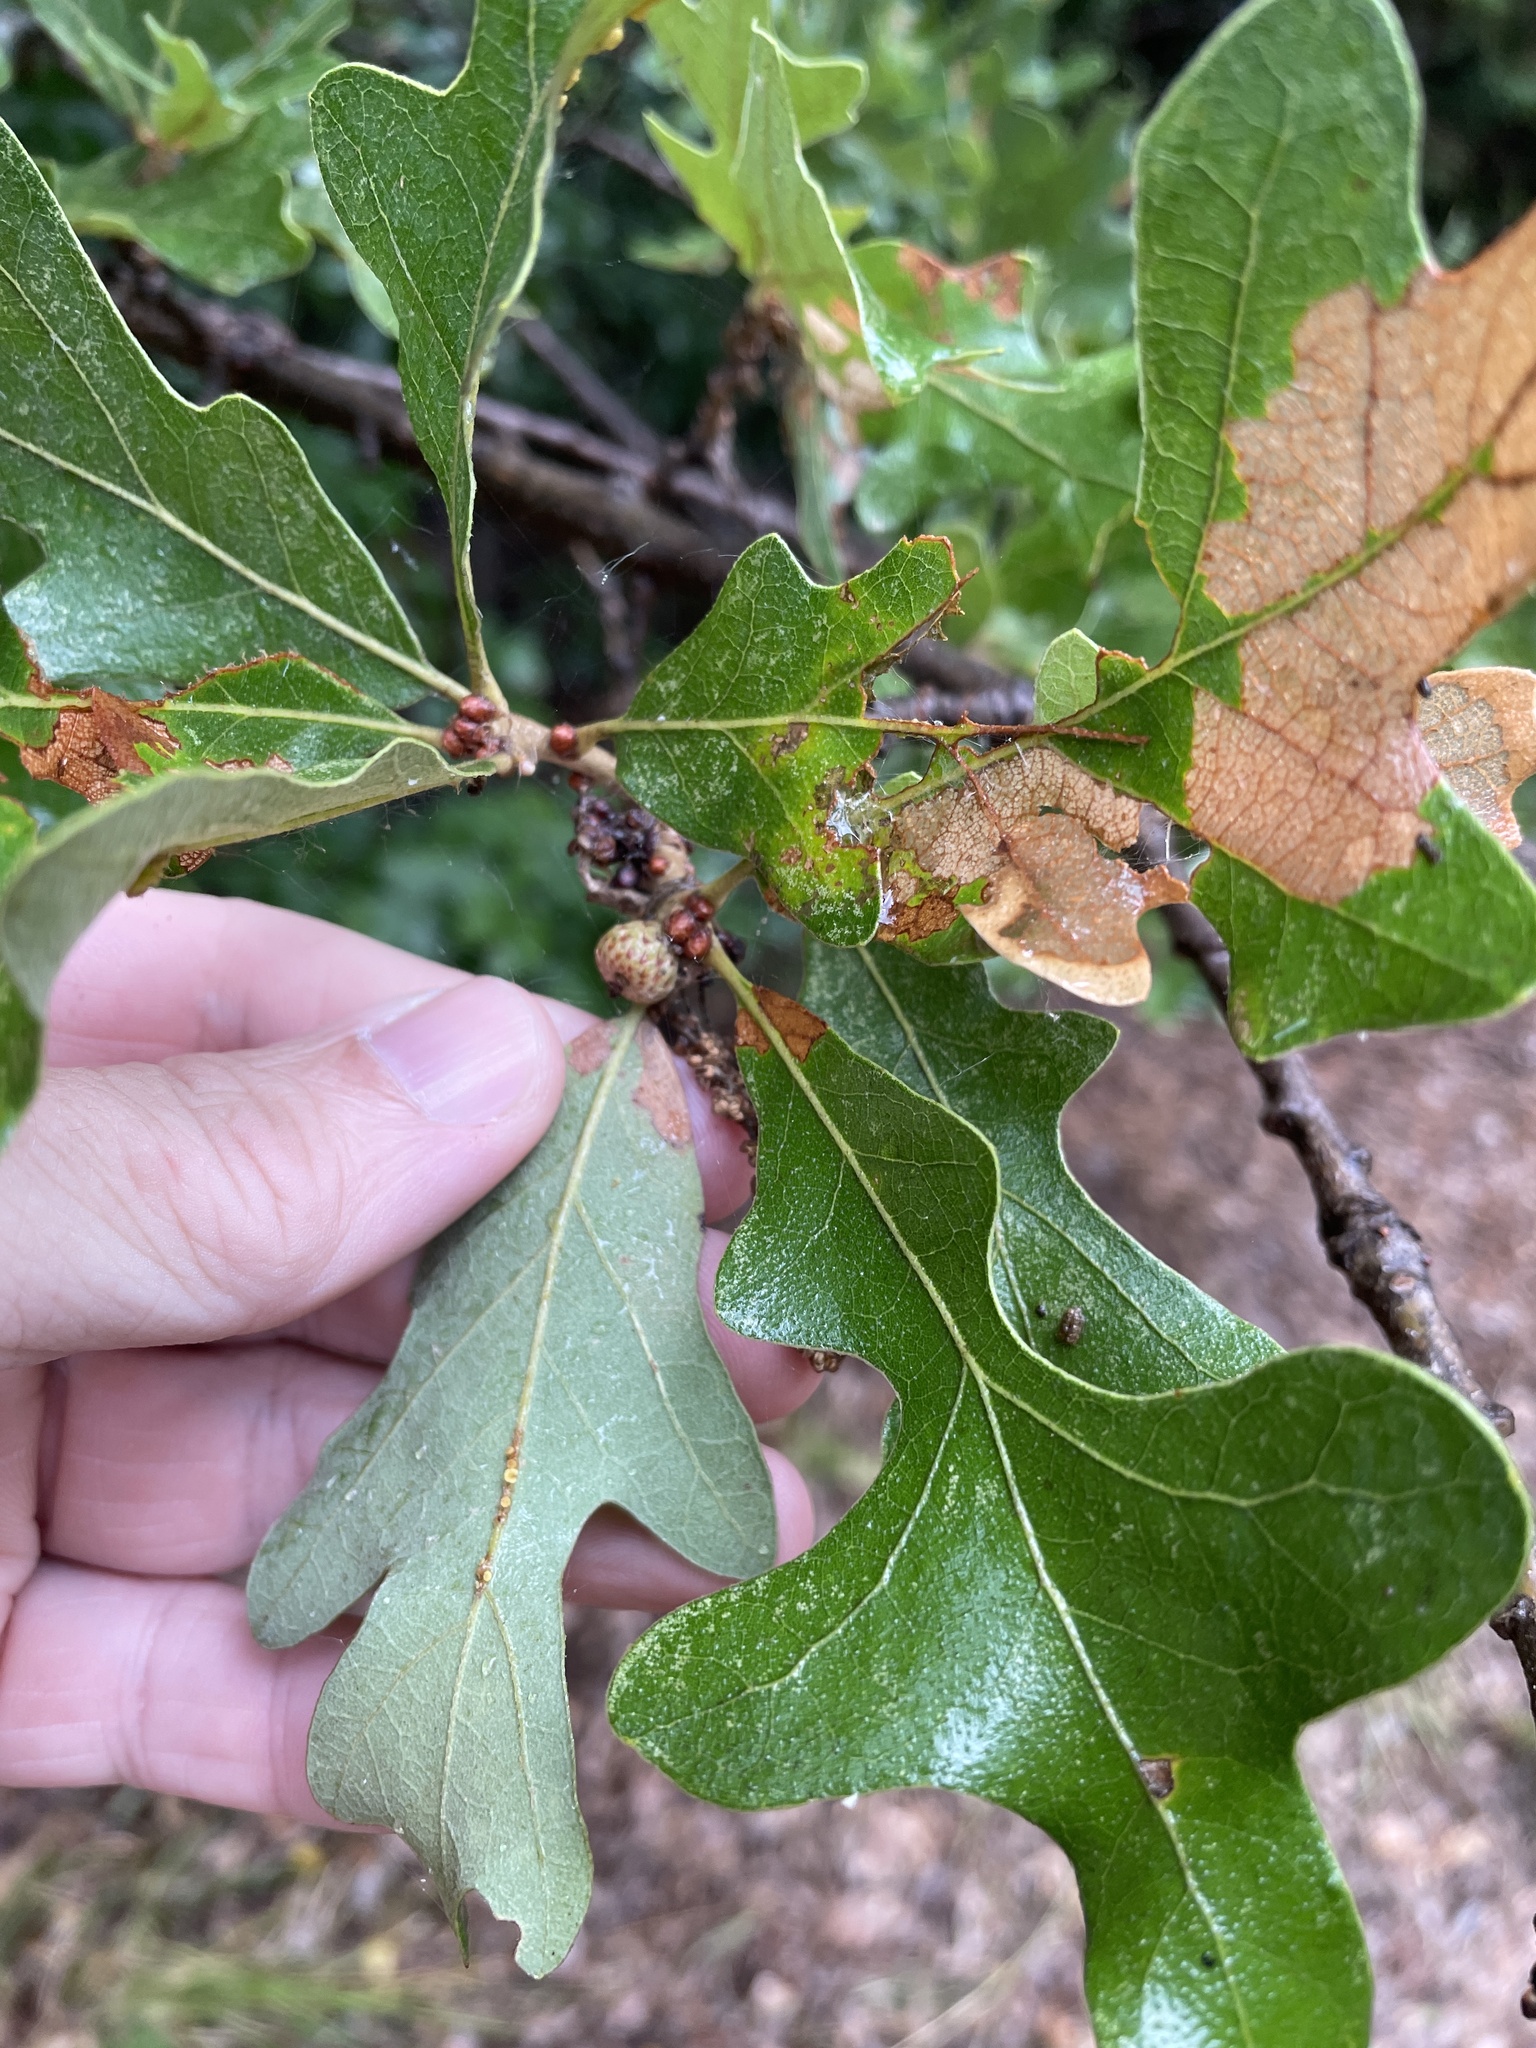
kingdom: Plantae
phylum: Tracheophyta
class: Magnoliopsida
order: Fagales
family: Fagaceae
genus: Quercus
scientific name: Quercus stellata
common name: Post oak
